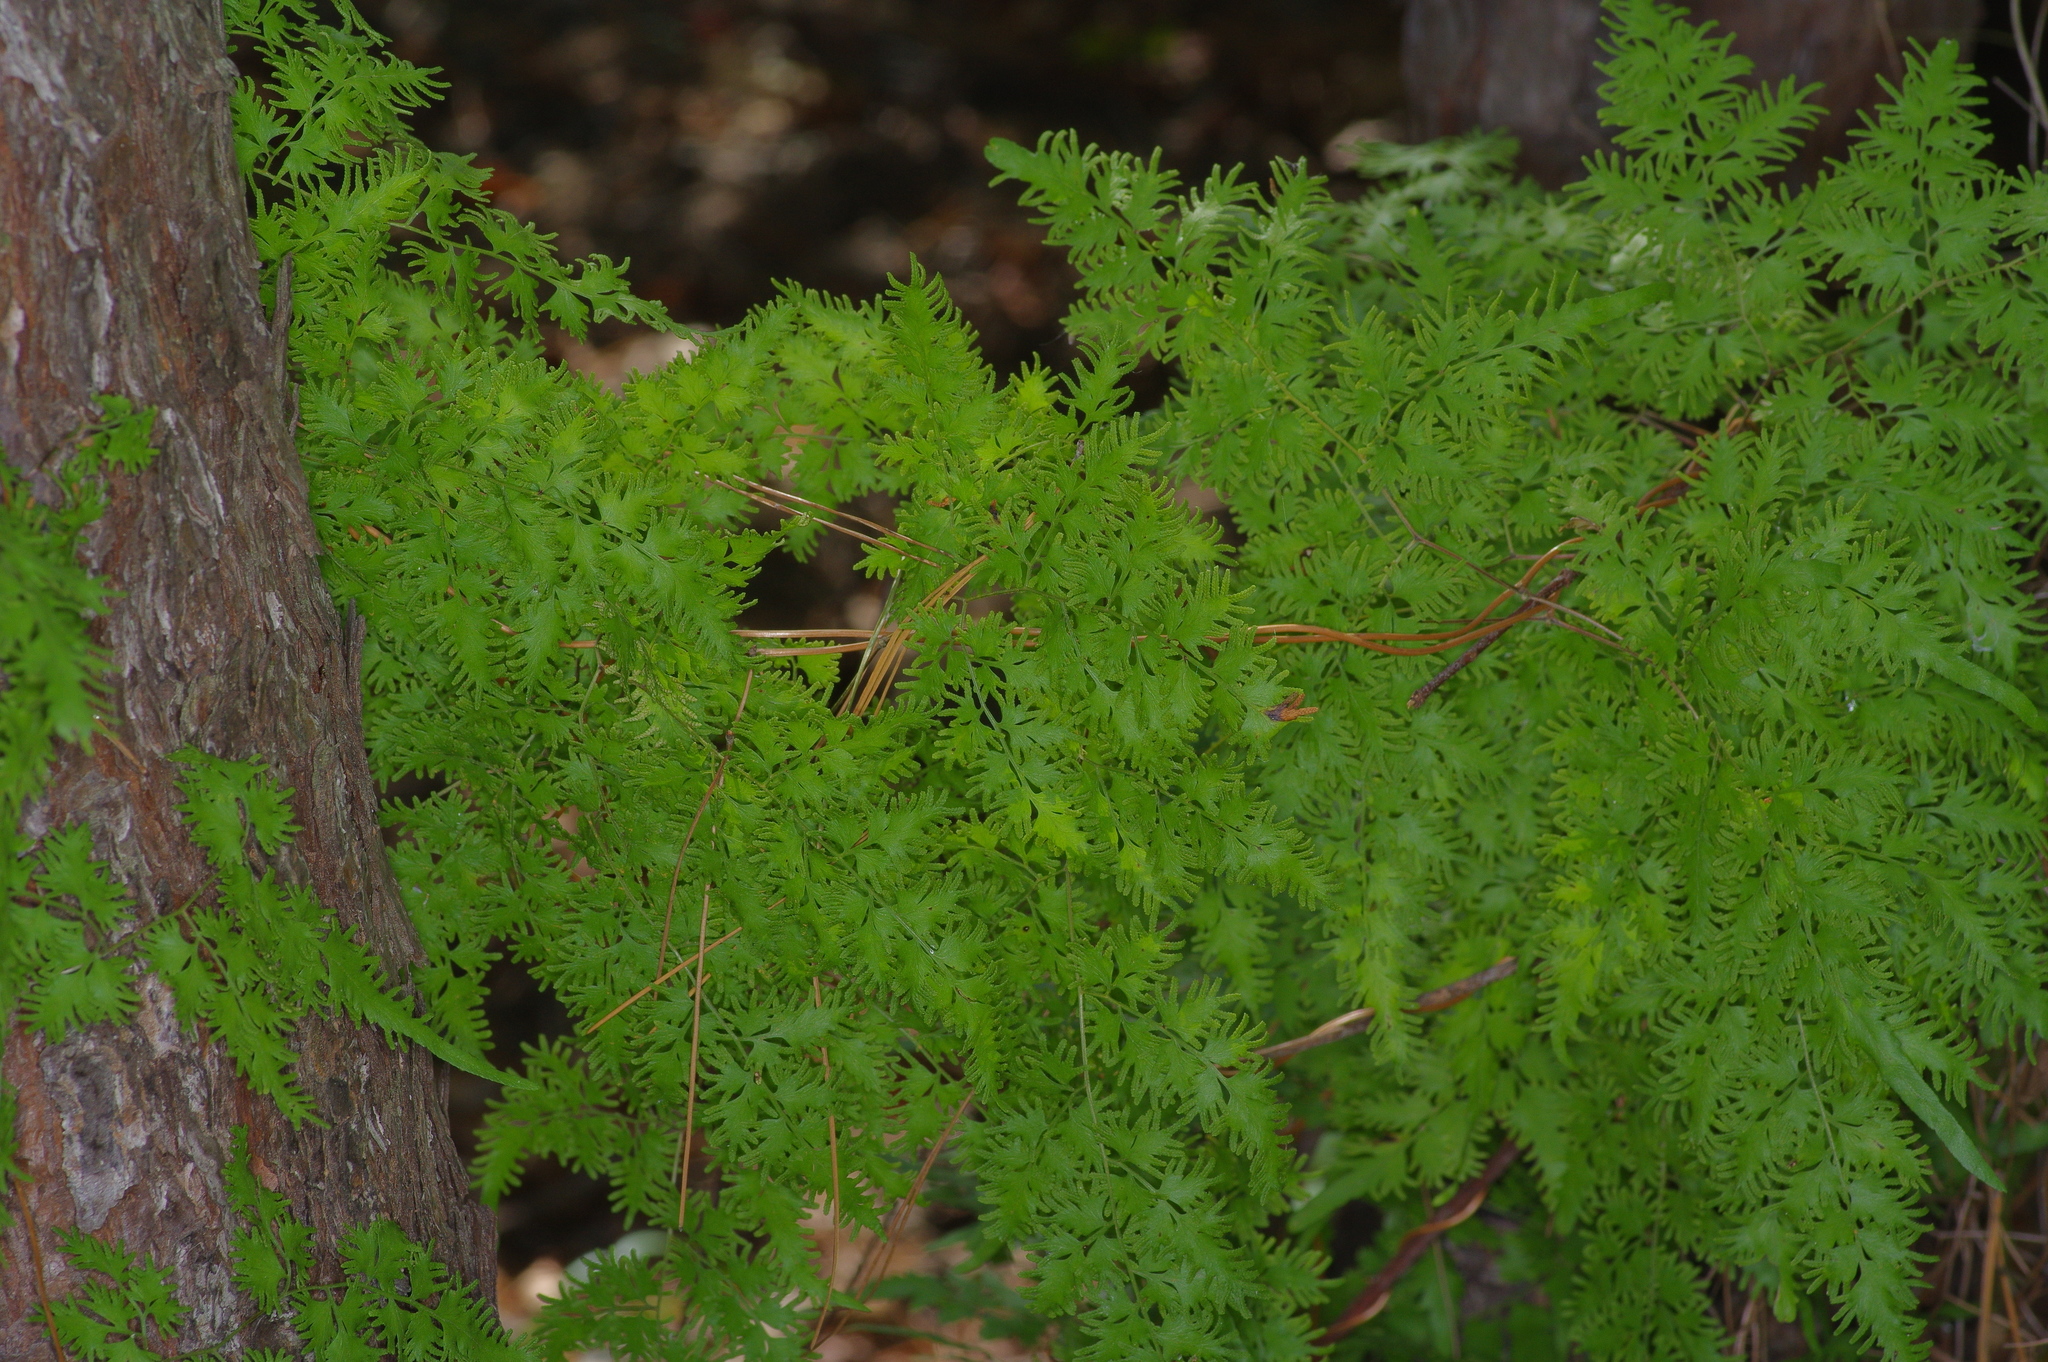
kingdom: Plantae
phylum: Tracheophyta
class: Polypodiopsida
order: Schizaeales
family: Lygodiaceae
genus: Lygodium
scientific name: Lygodium japonicum
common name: Japanese climbing fern
